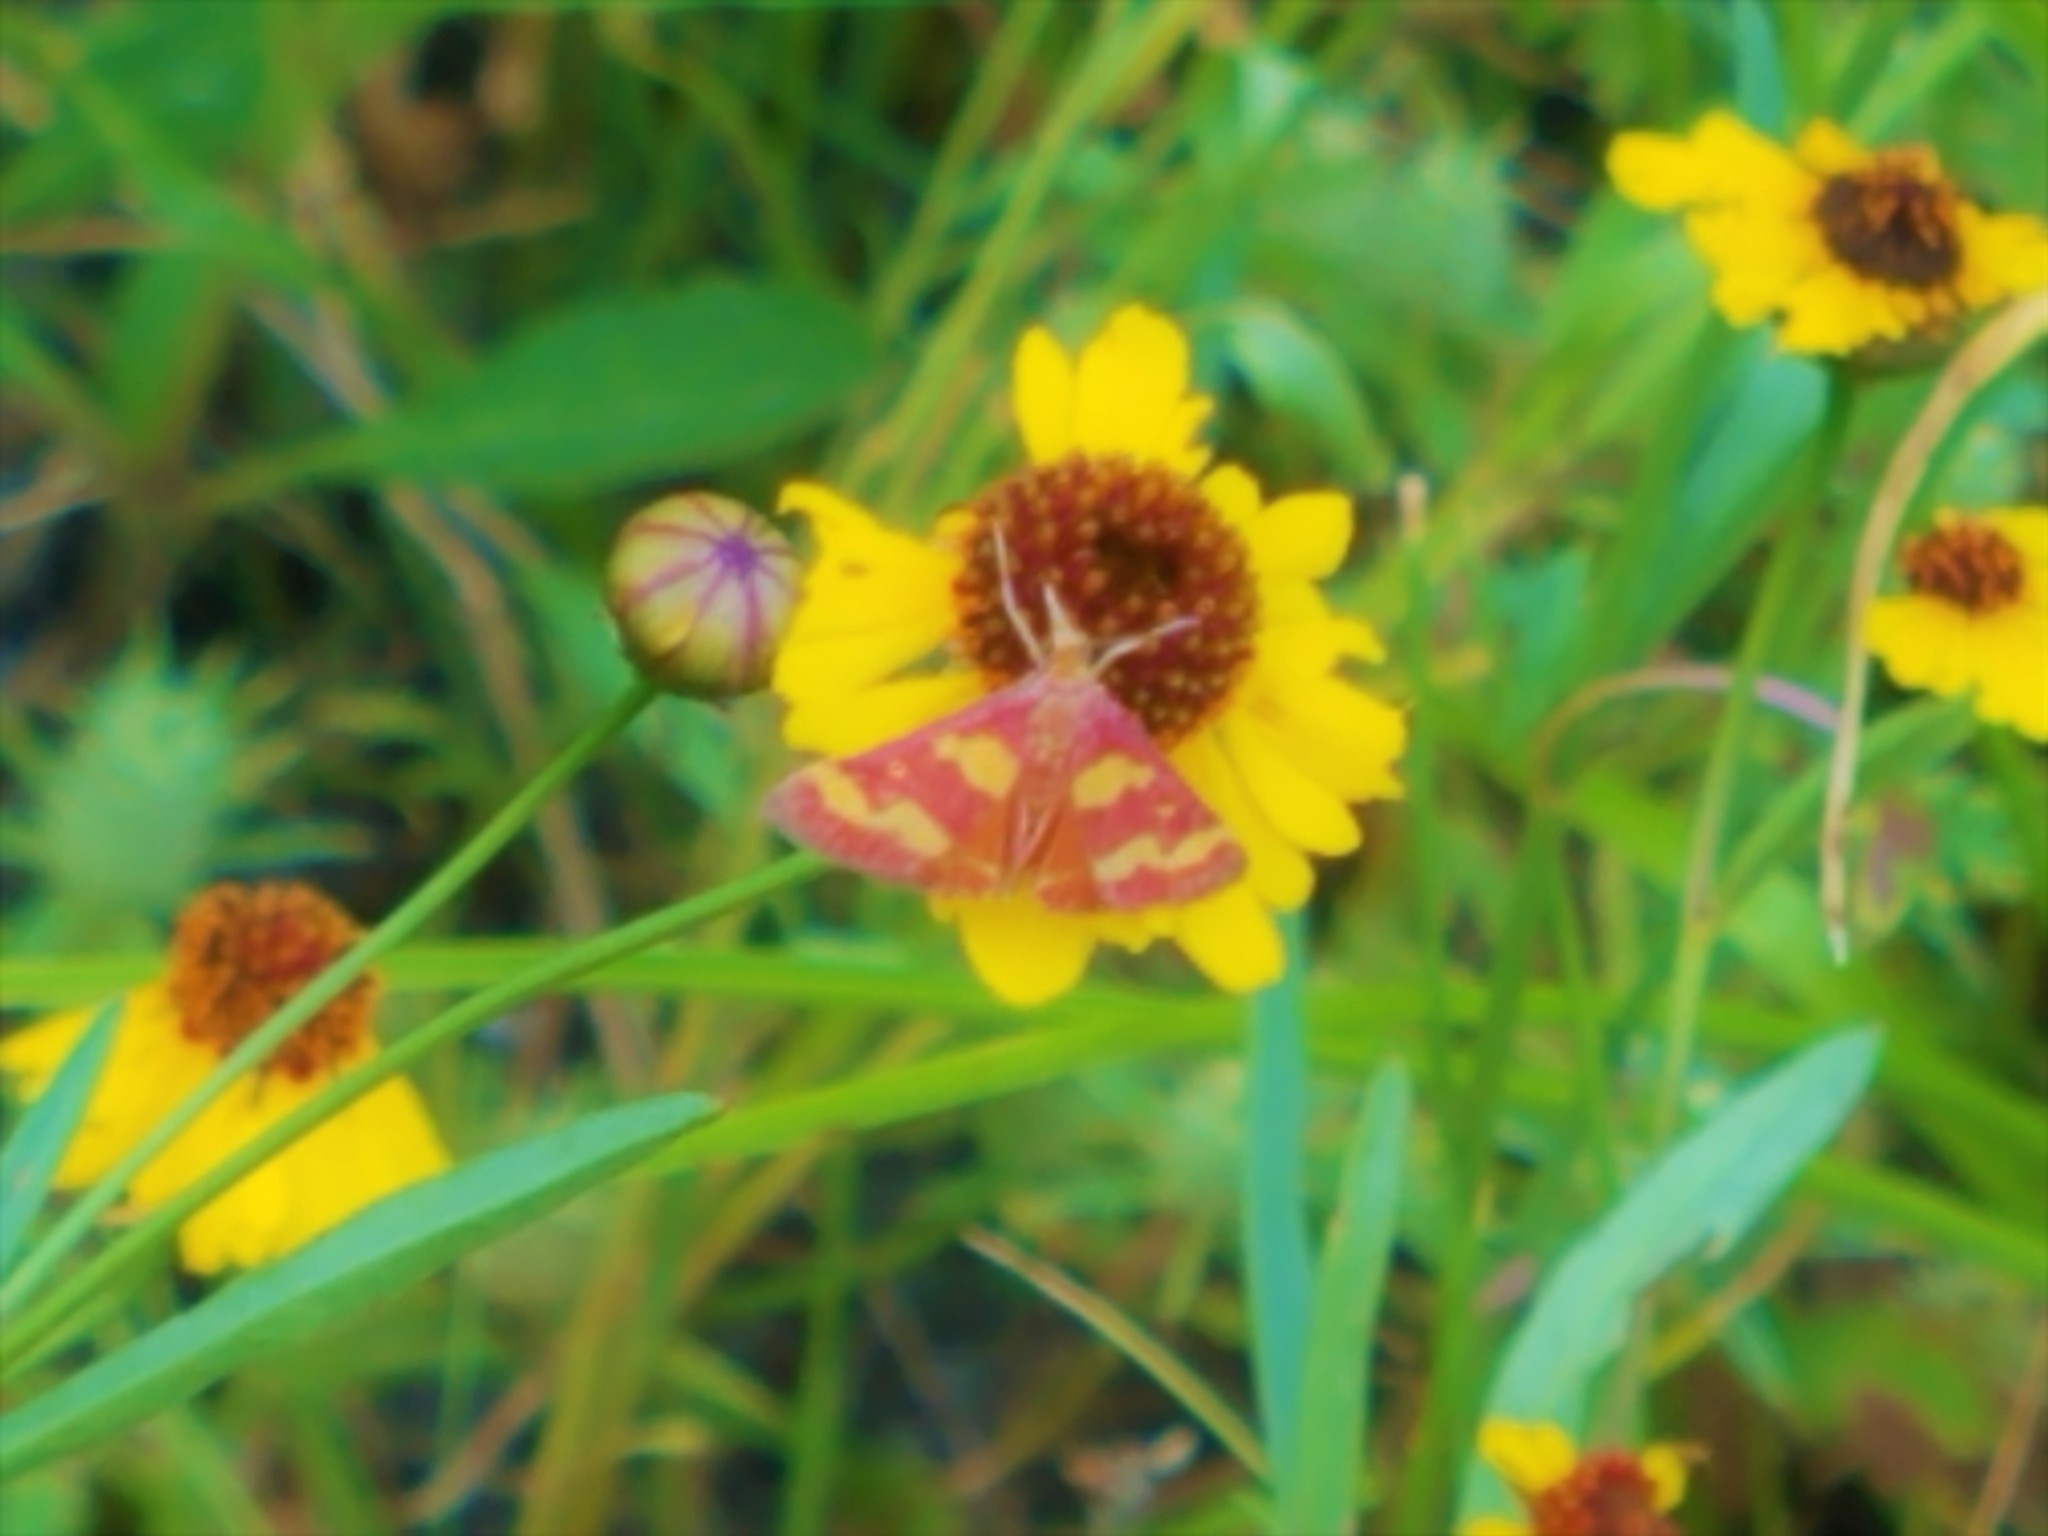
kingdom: Animalia
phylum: Arthropoda
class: Insecta
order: Lepidoptera
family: Crambidae
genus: Pyrausta
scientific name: Pyrausta tyralis
